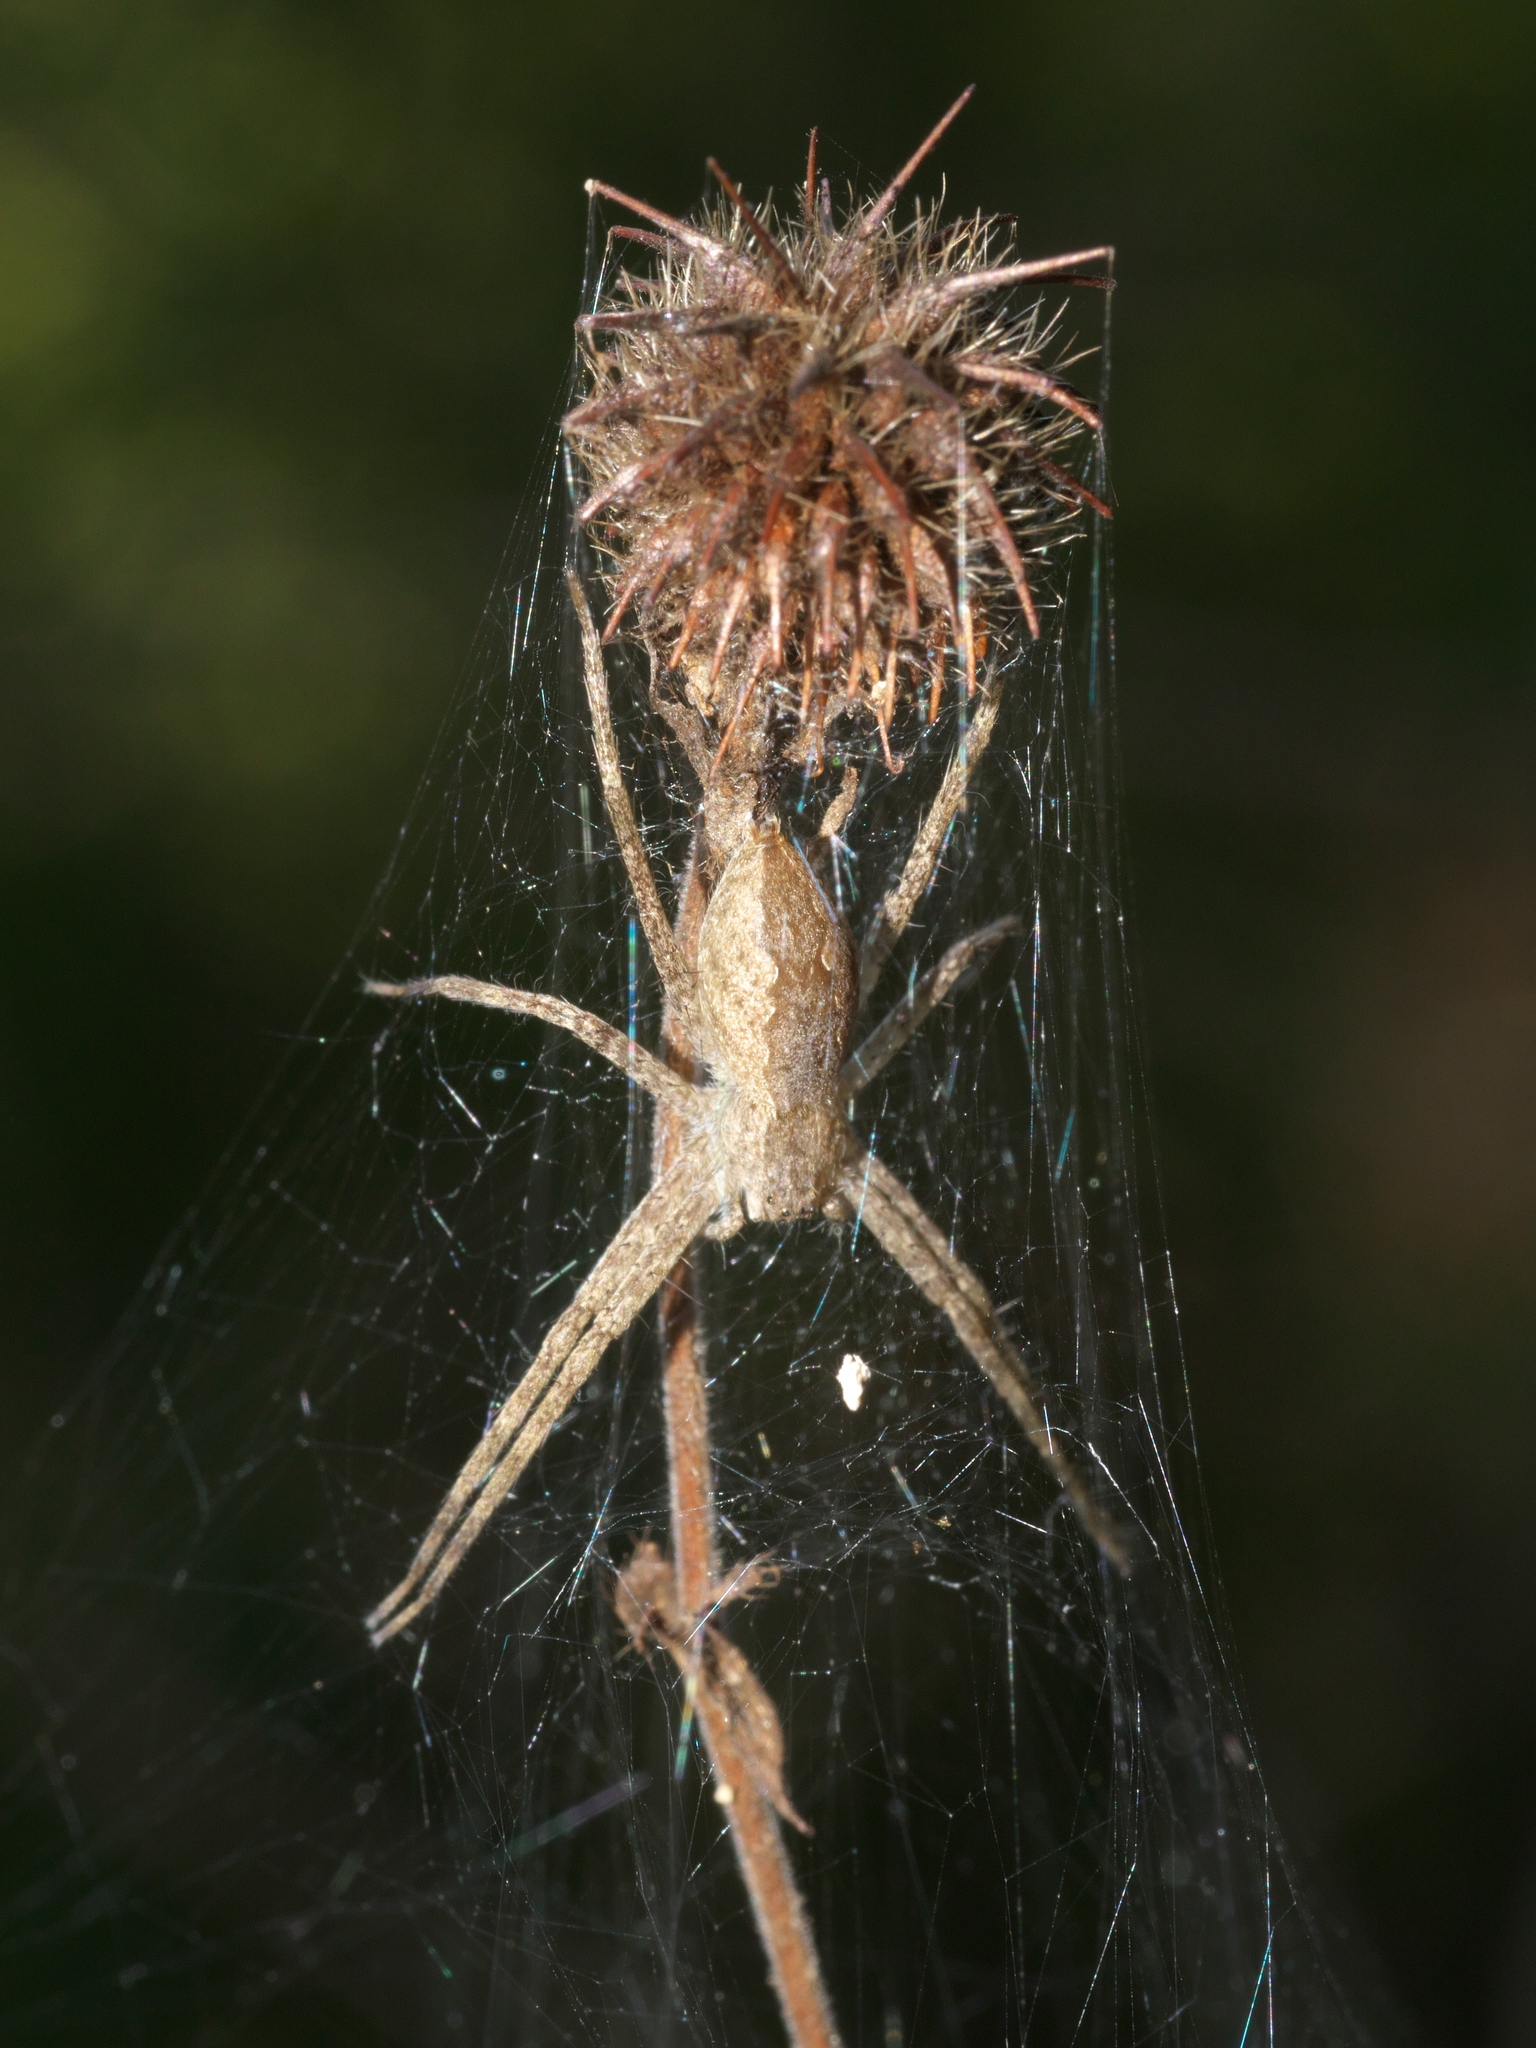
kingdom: Animalia
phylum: Arthropoda
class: Arachnida
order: Araneae
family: Pisauridae
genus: Pisaurina
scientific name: Pisaurina mira
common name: American nursery web spider
